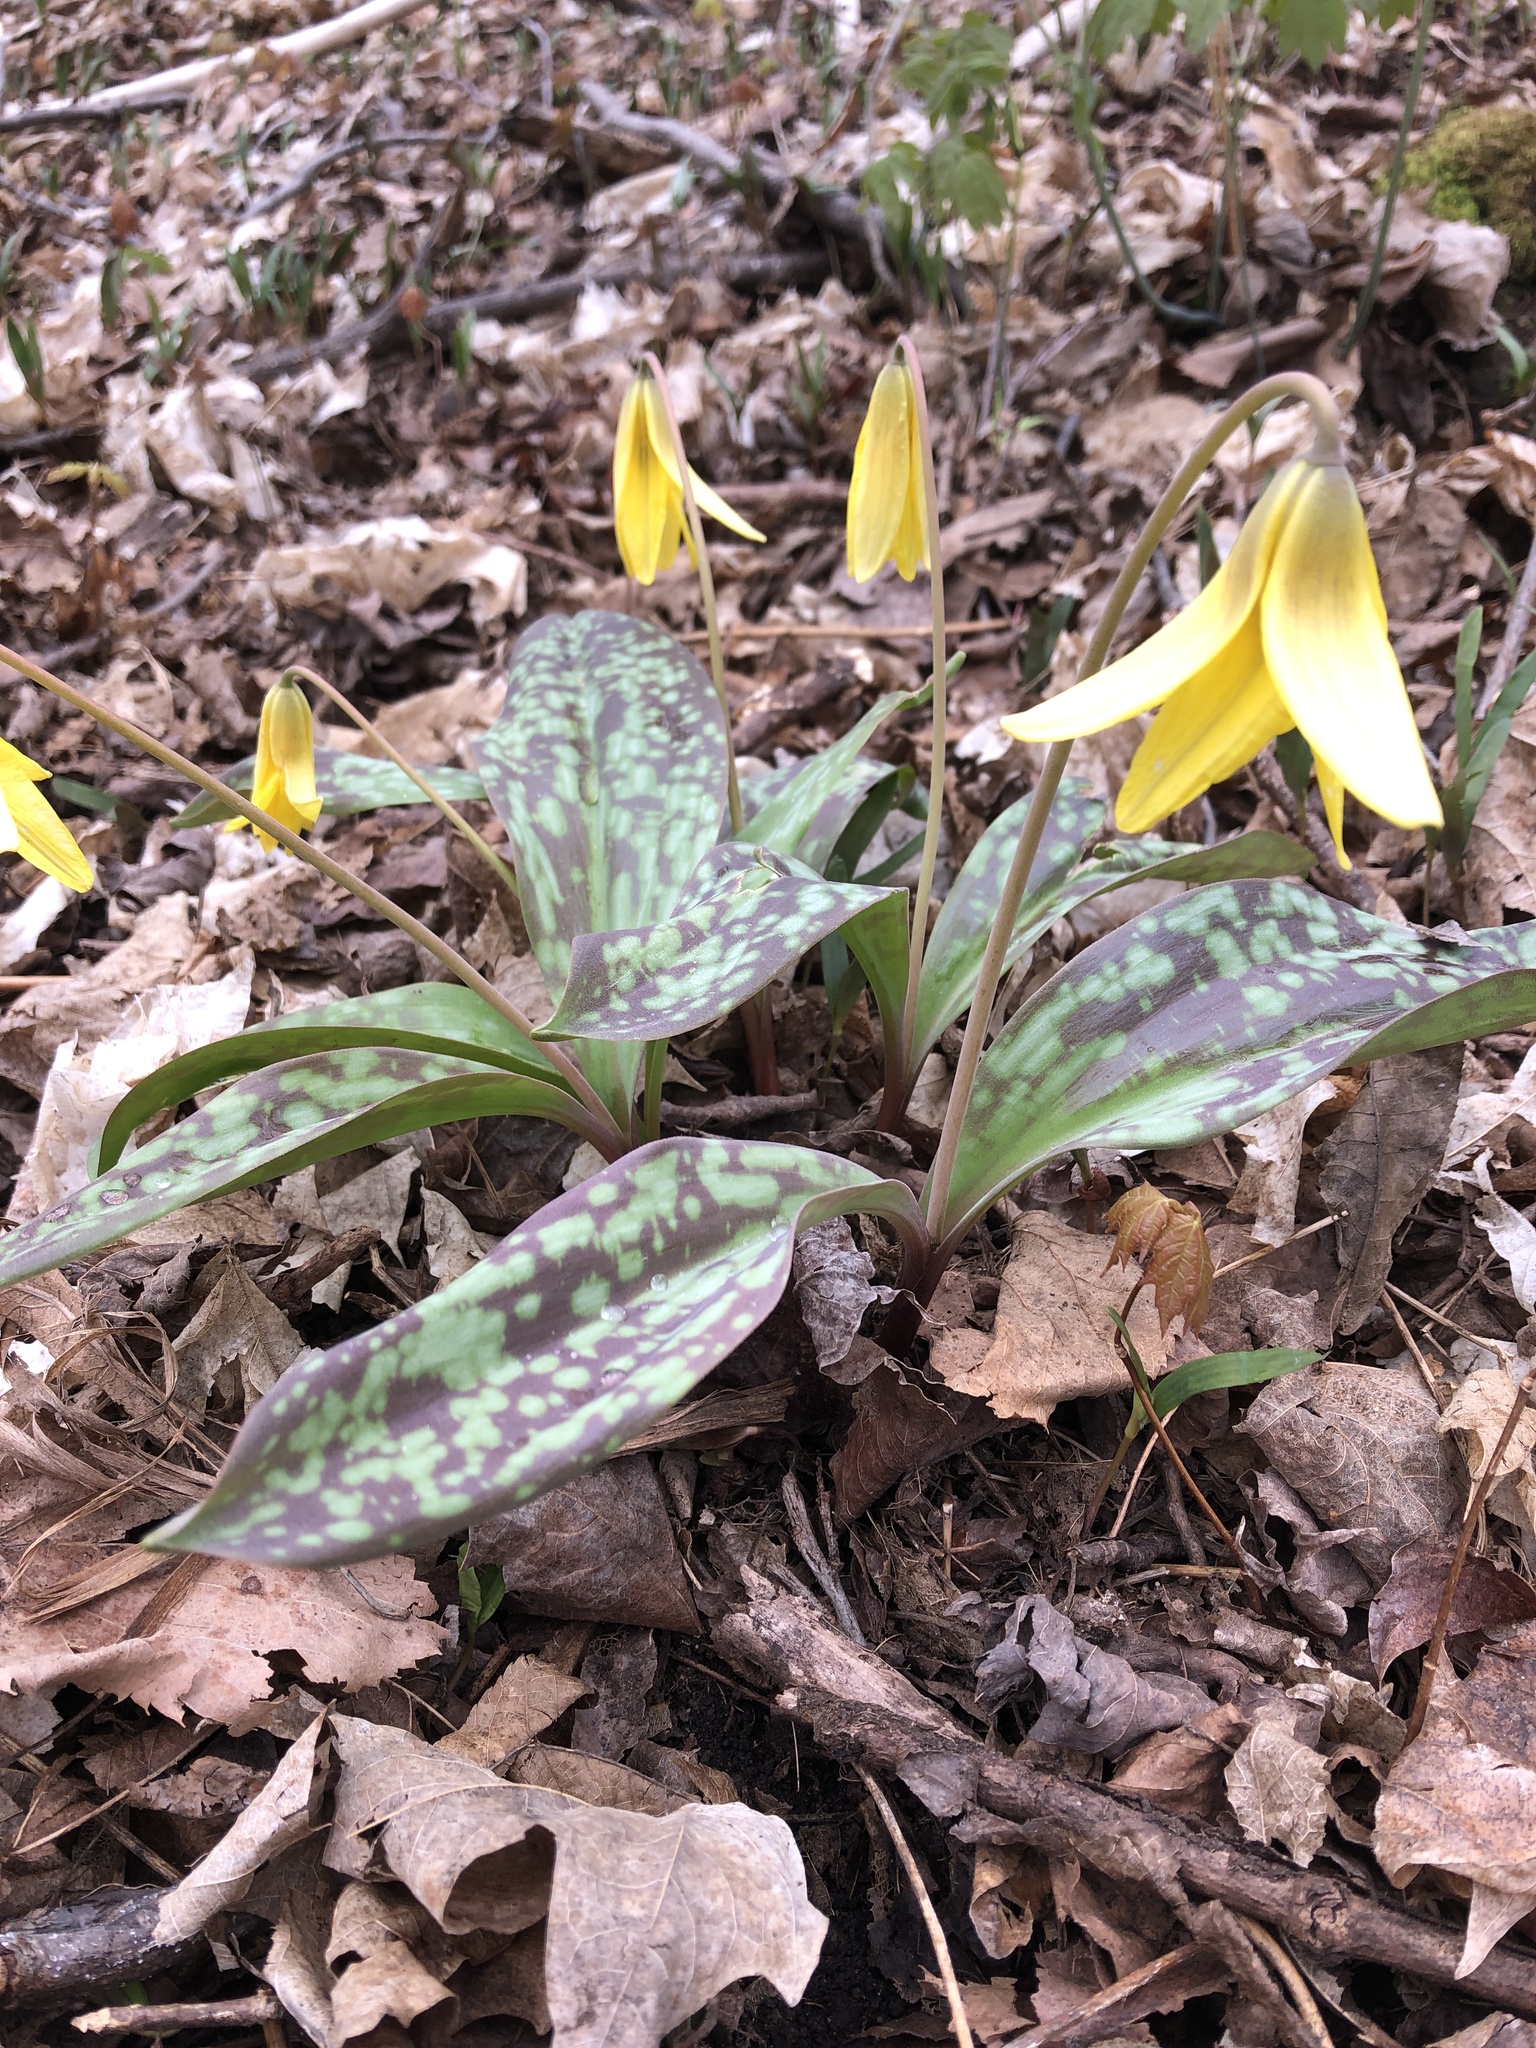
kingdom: Plantae
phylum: Tracheophyta
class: Liliopsida
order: Liliales
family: Liliaceae
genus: Erythronium
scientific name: Erythronium americanum
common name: Yellow adder's-tongue
